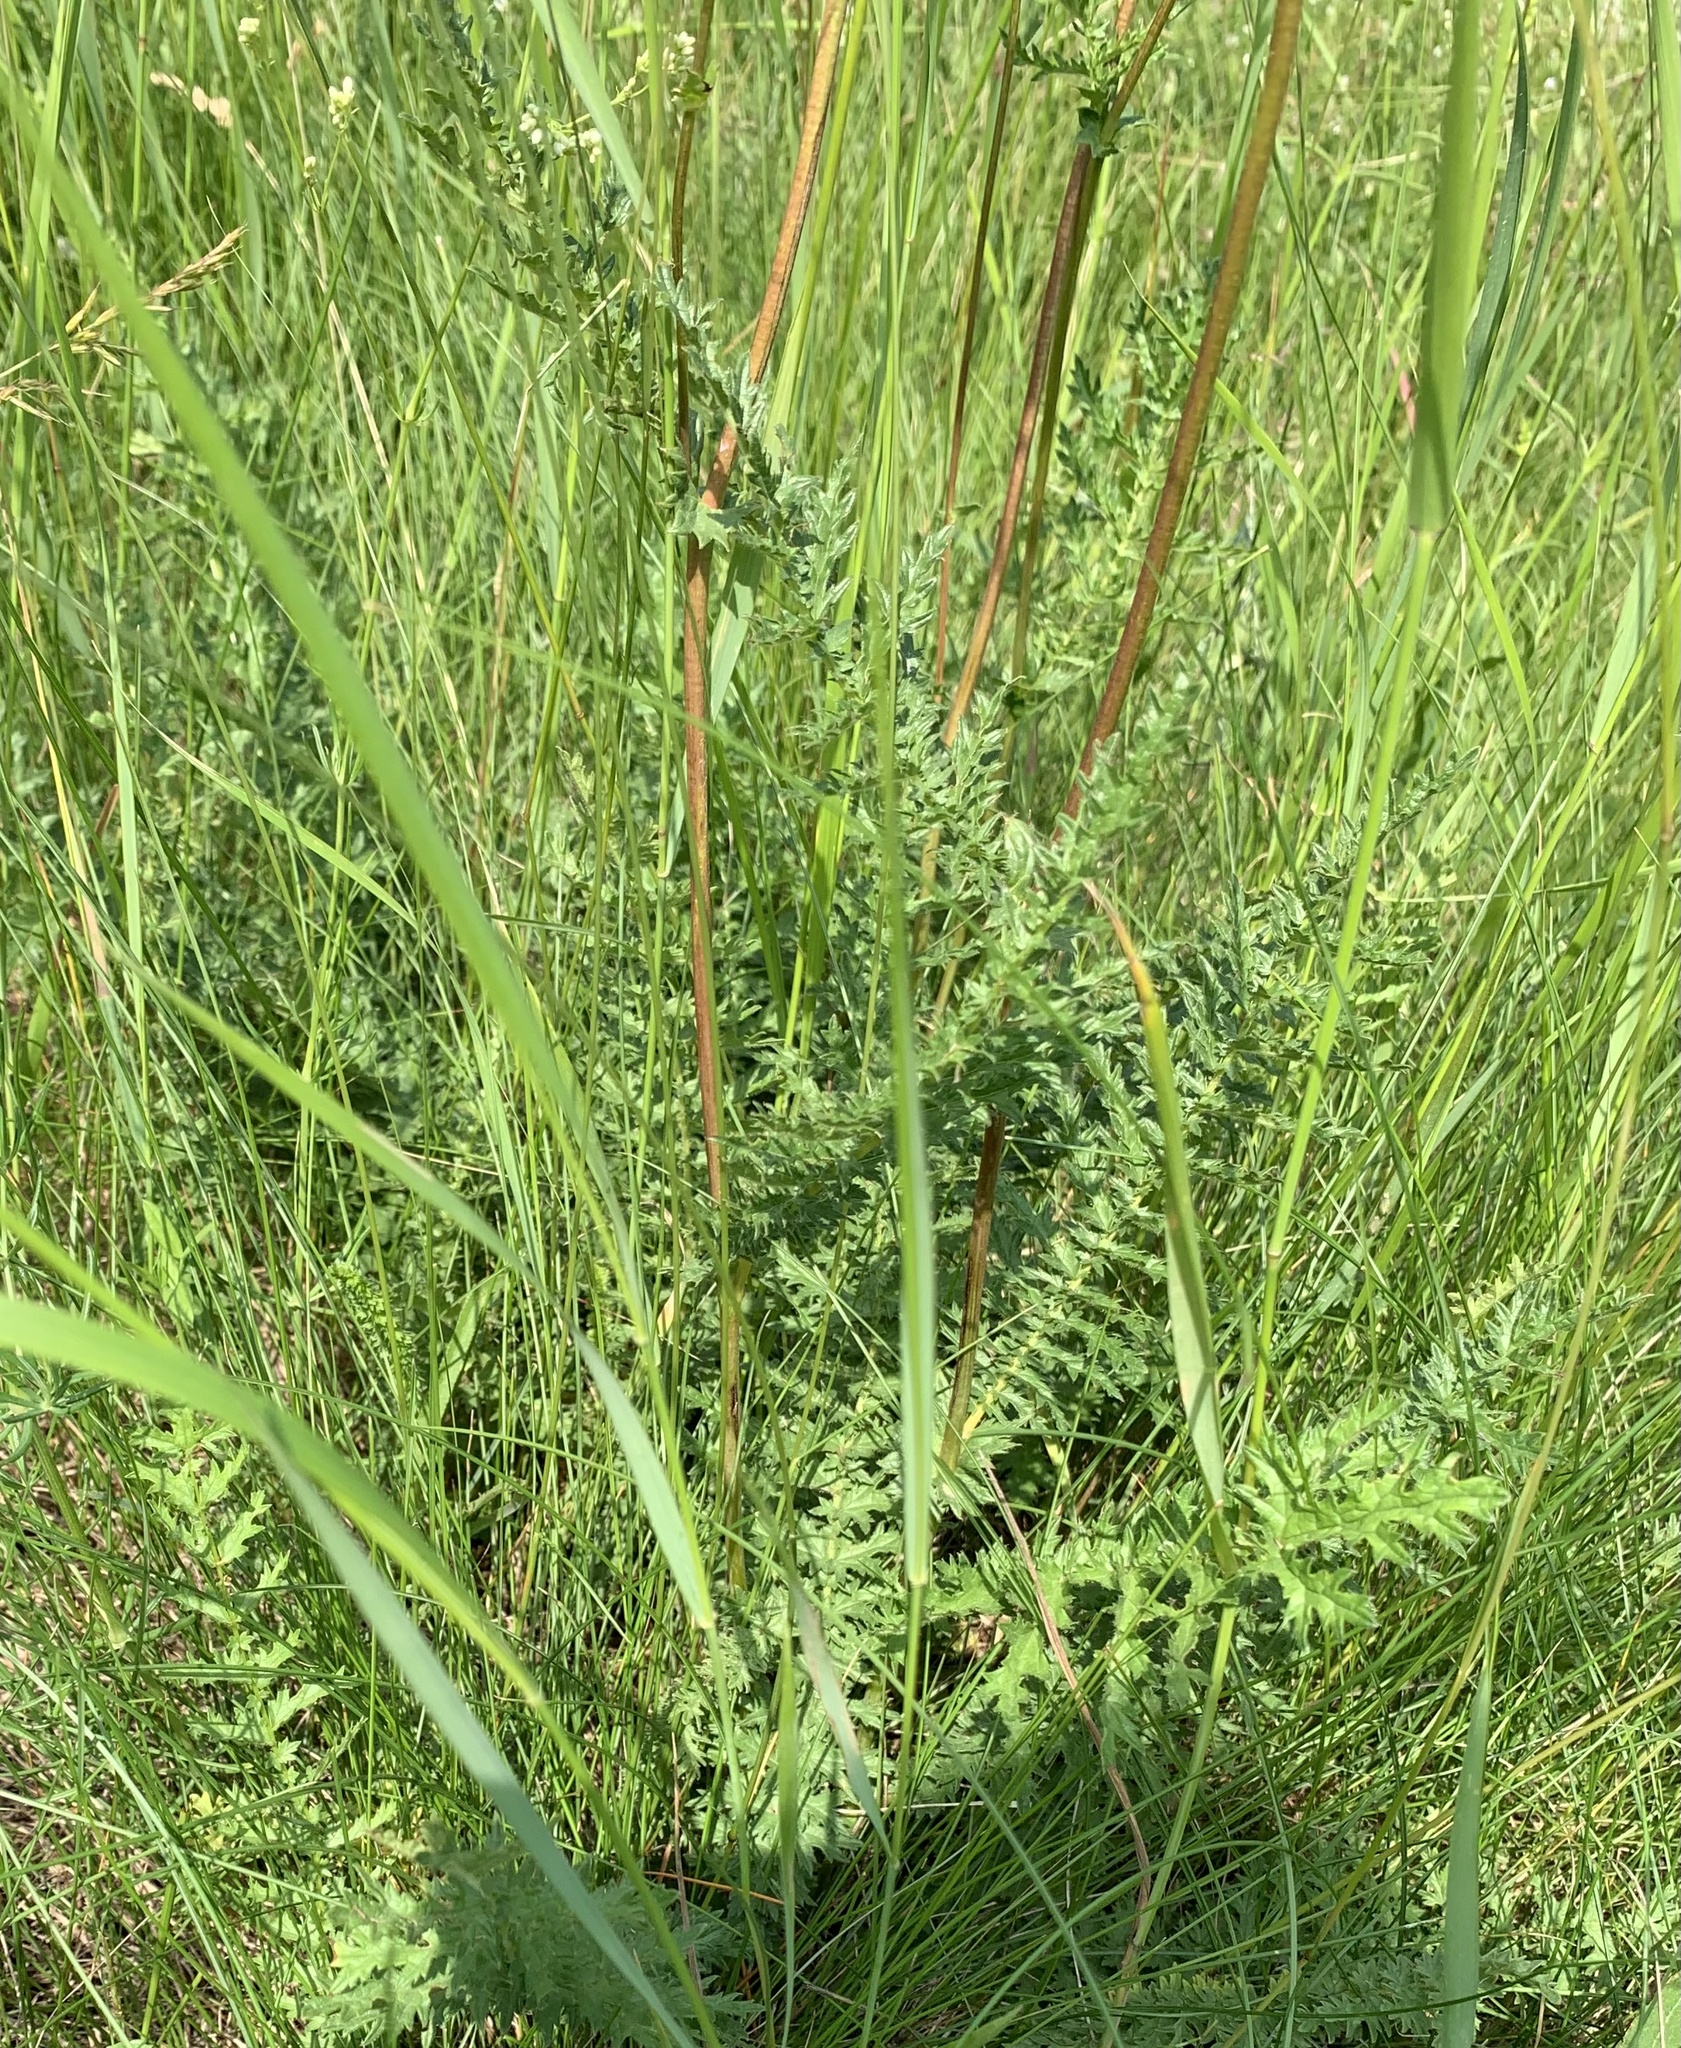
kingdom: Plantae
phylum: Tracheophyta
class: Magnoliopsida
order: Rosales
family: Rosaceae
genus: Filipendula
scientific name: Filipendula vulgaris
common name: Dropwort
